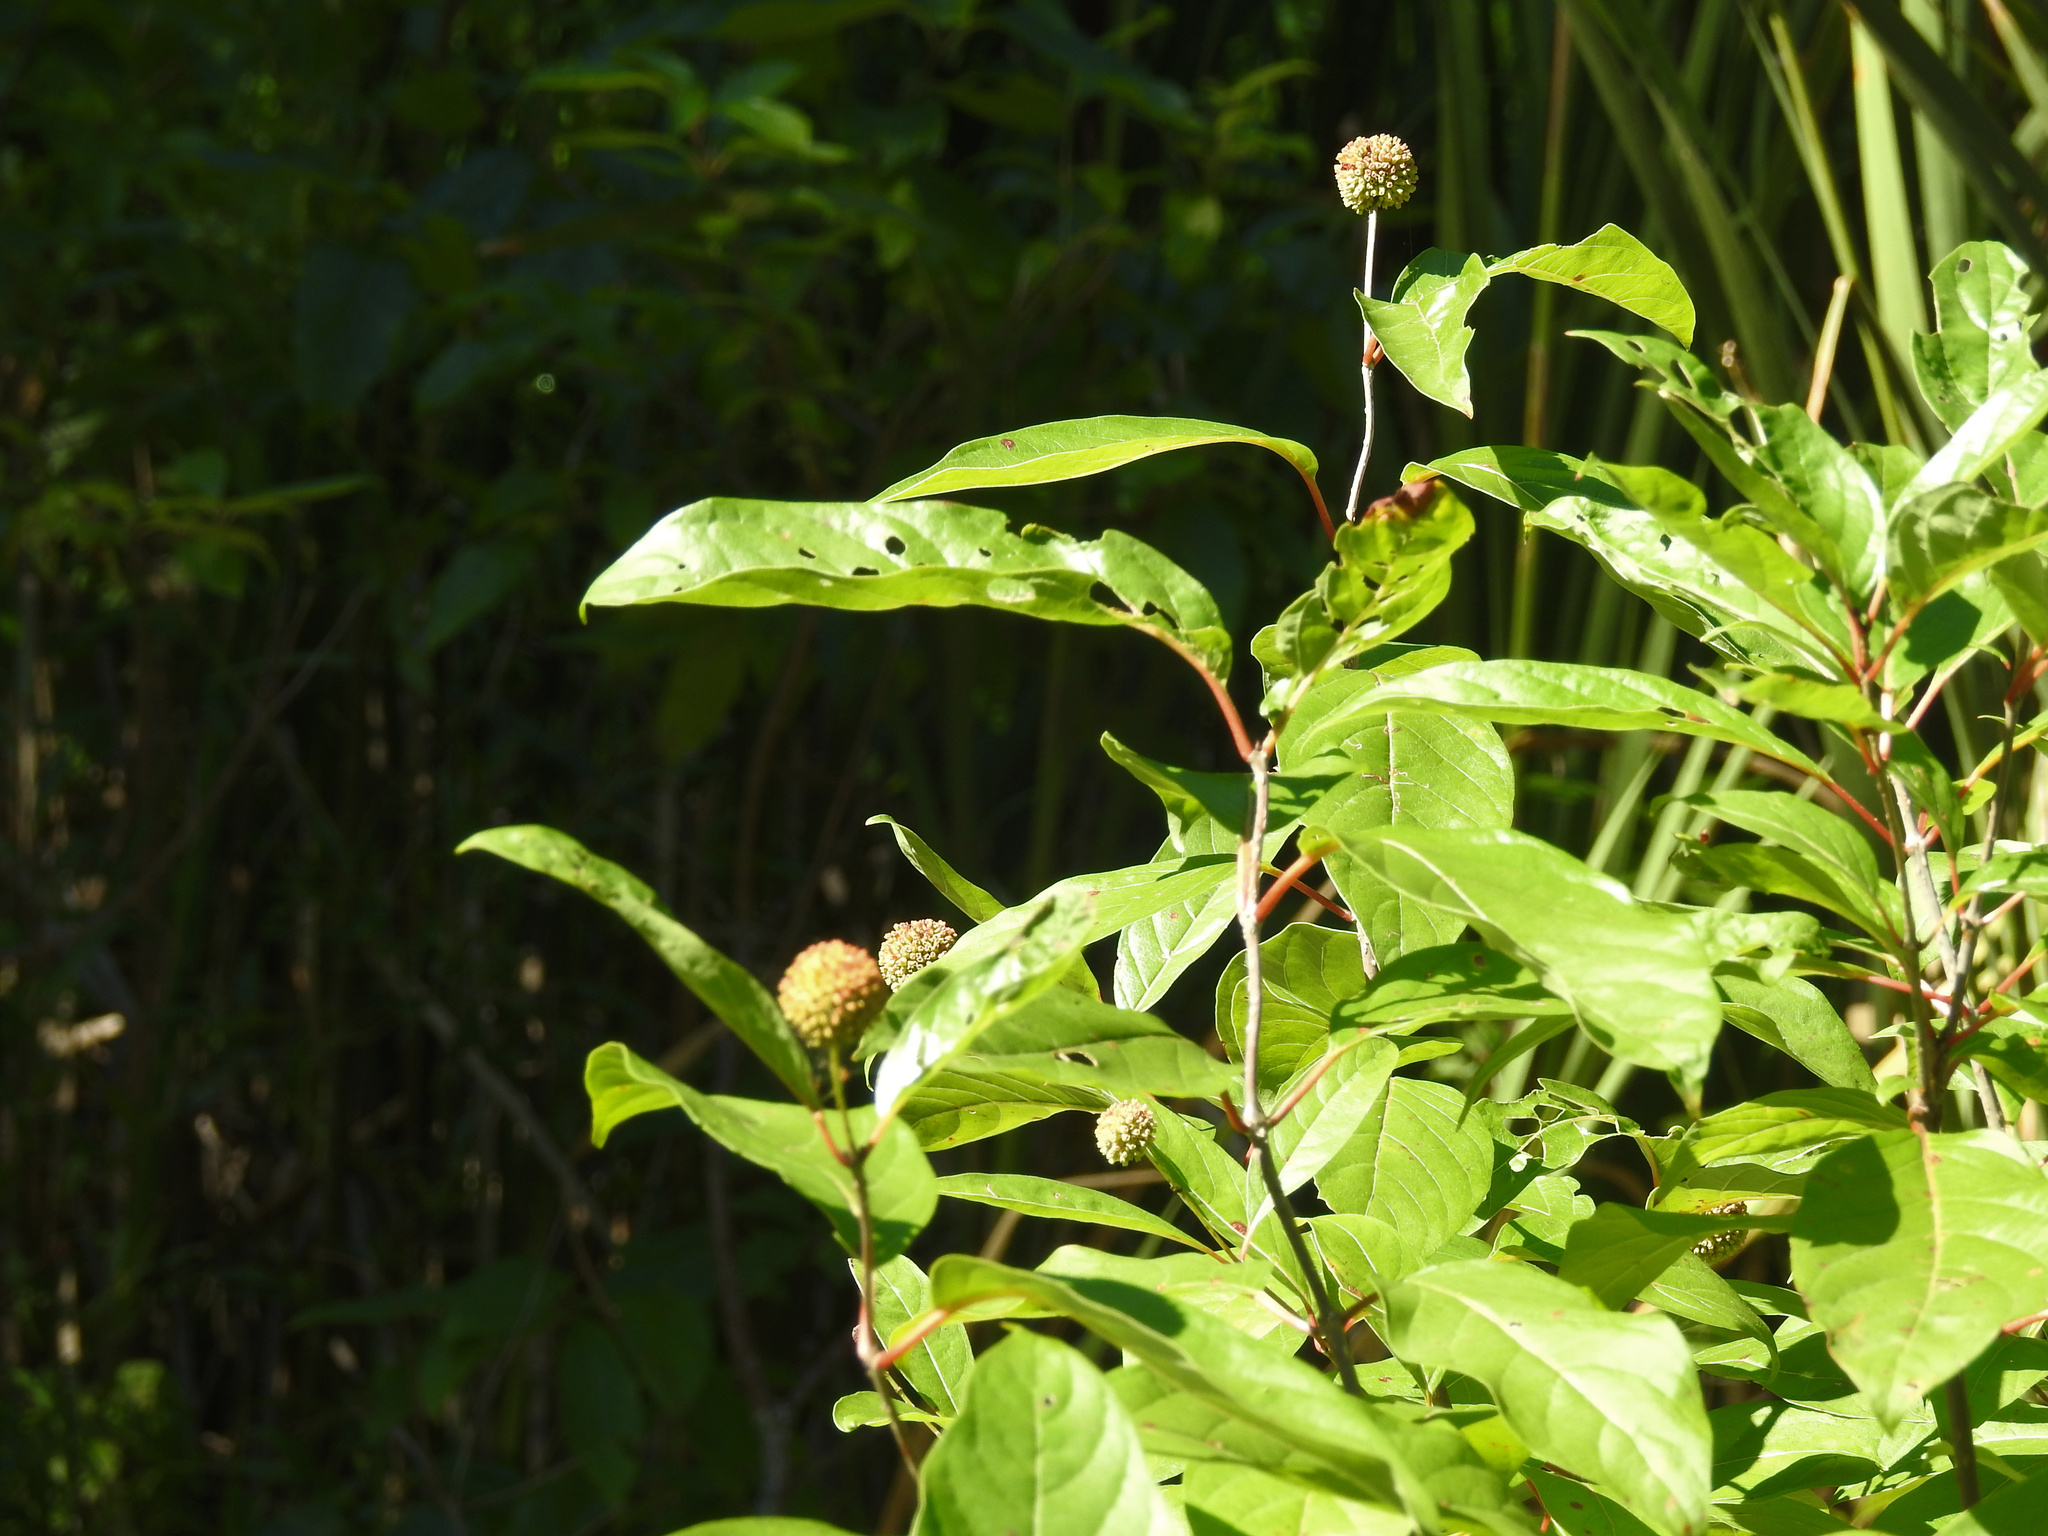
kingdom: Plantae
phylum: Tracheophyta
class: Magnoliopsida
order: Gentianales
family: Rubiaceae
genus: Cephalanthus
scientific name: Cephalanthus occidentalis
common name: Button-willow
